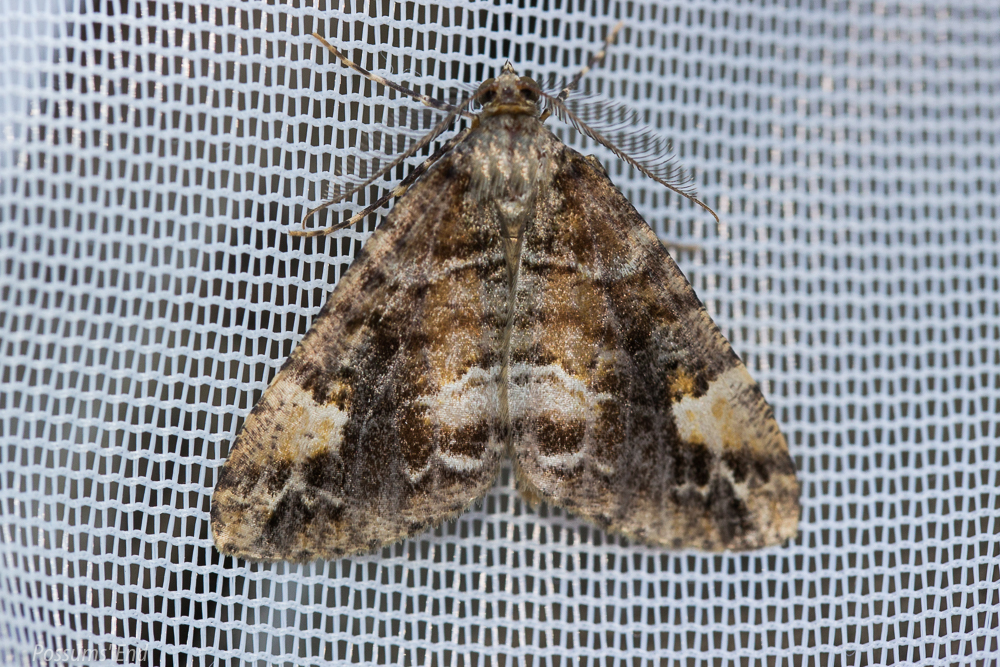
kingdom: Animalia
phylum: Arthropoda
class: Insecta
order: Lepidoptera
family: Geometridae
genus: Pseudocoremia
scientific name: Pseudocoremia productata
